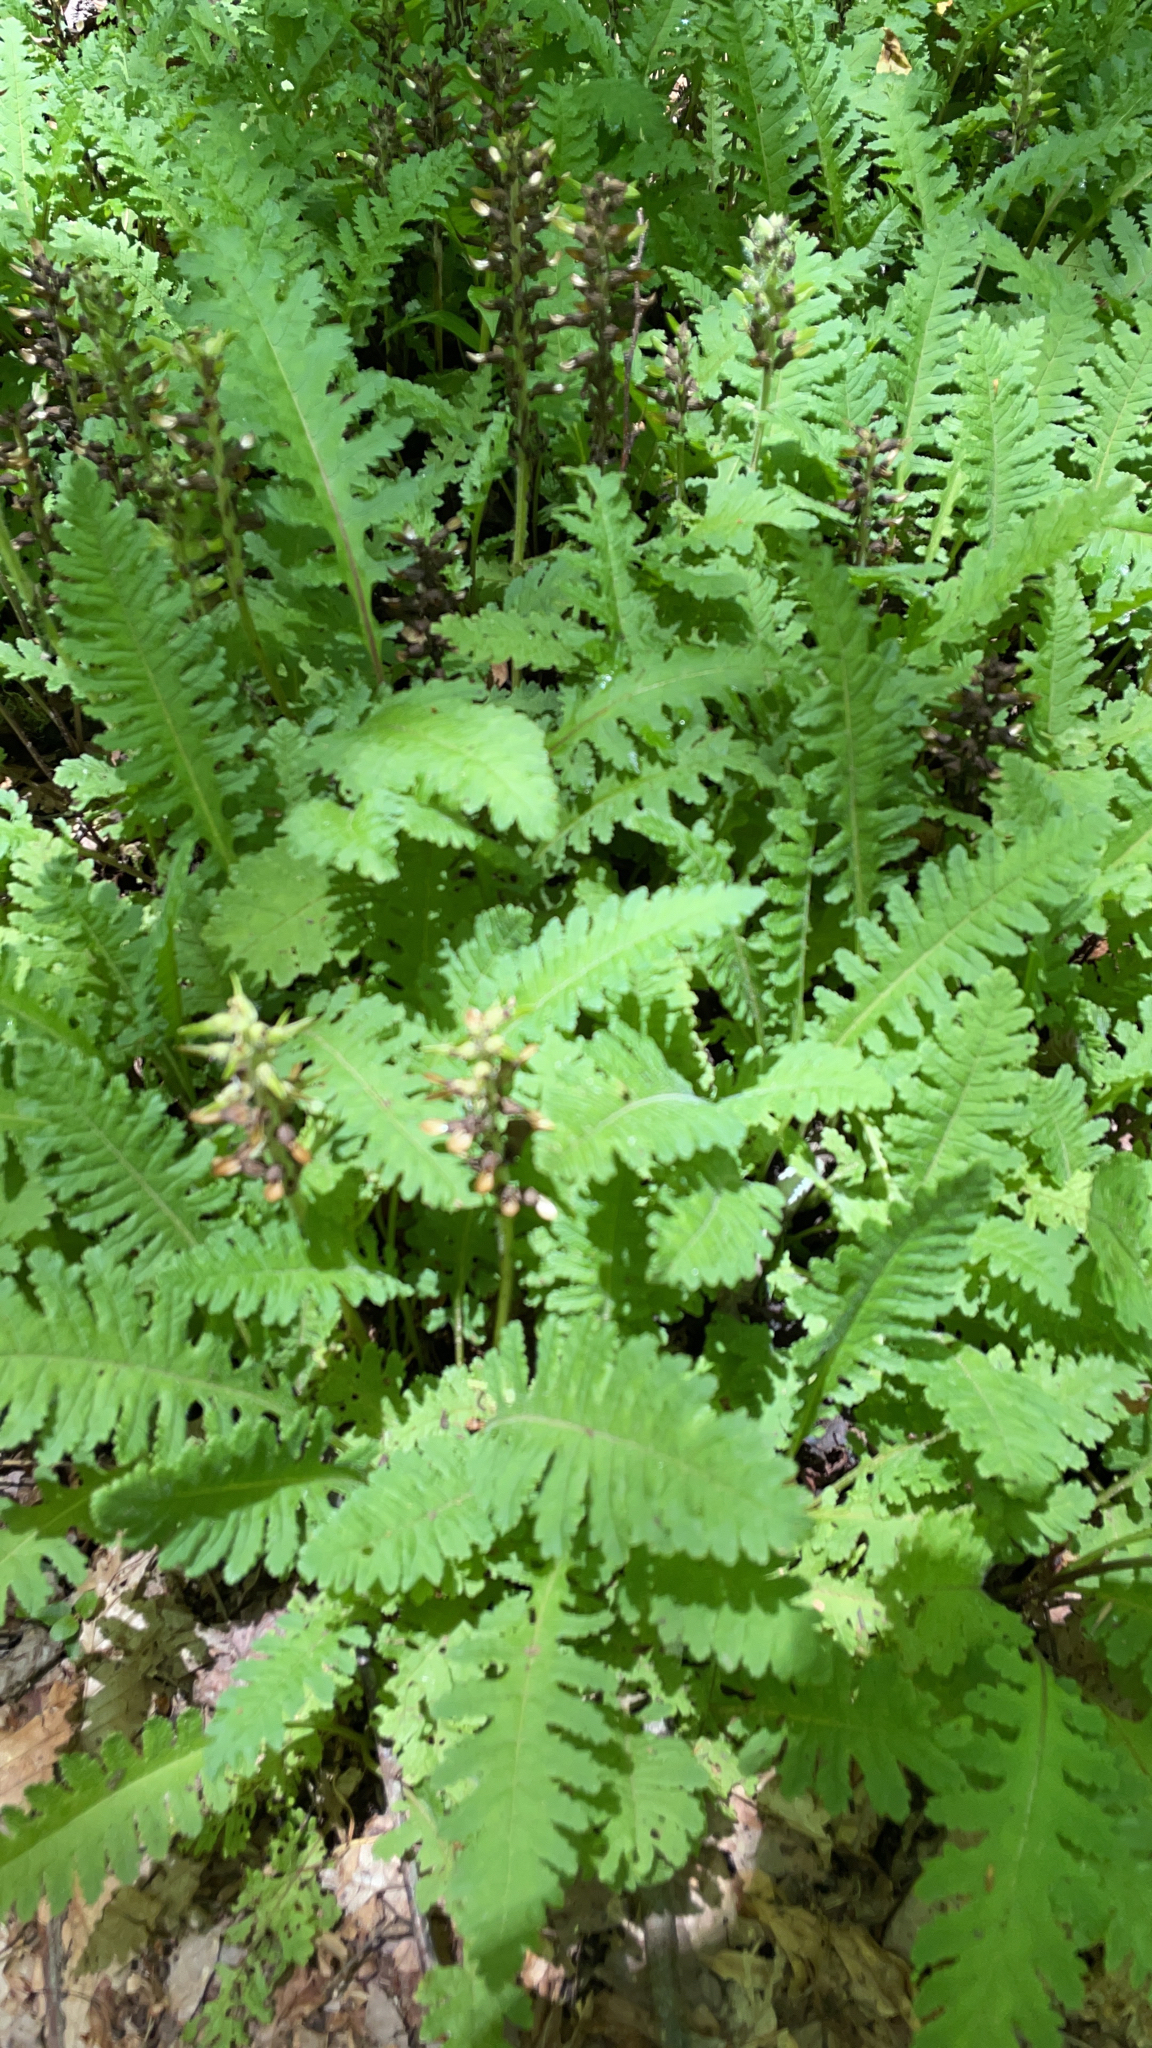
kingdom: Plantae
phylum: Tracheophyta
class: Magnoliopsida
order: Lamiales
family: Orobanchaceae
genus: Pedicularis
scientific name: Pedicularis canadensis
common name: Early lousewort
